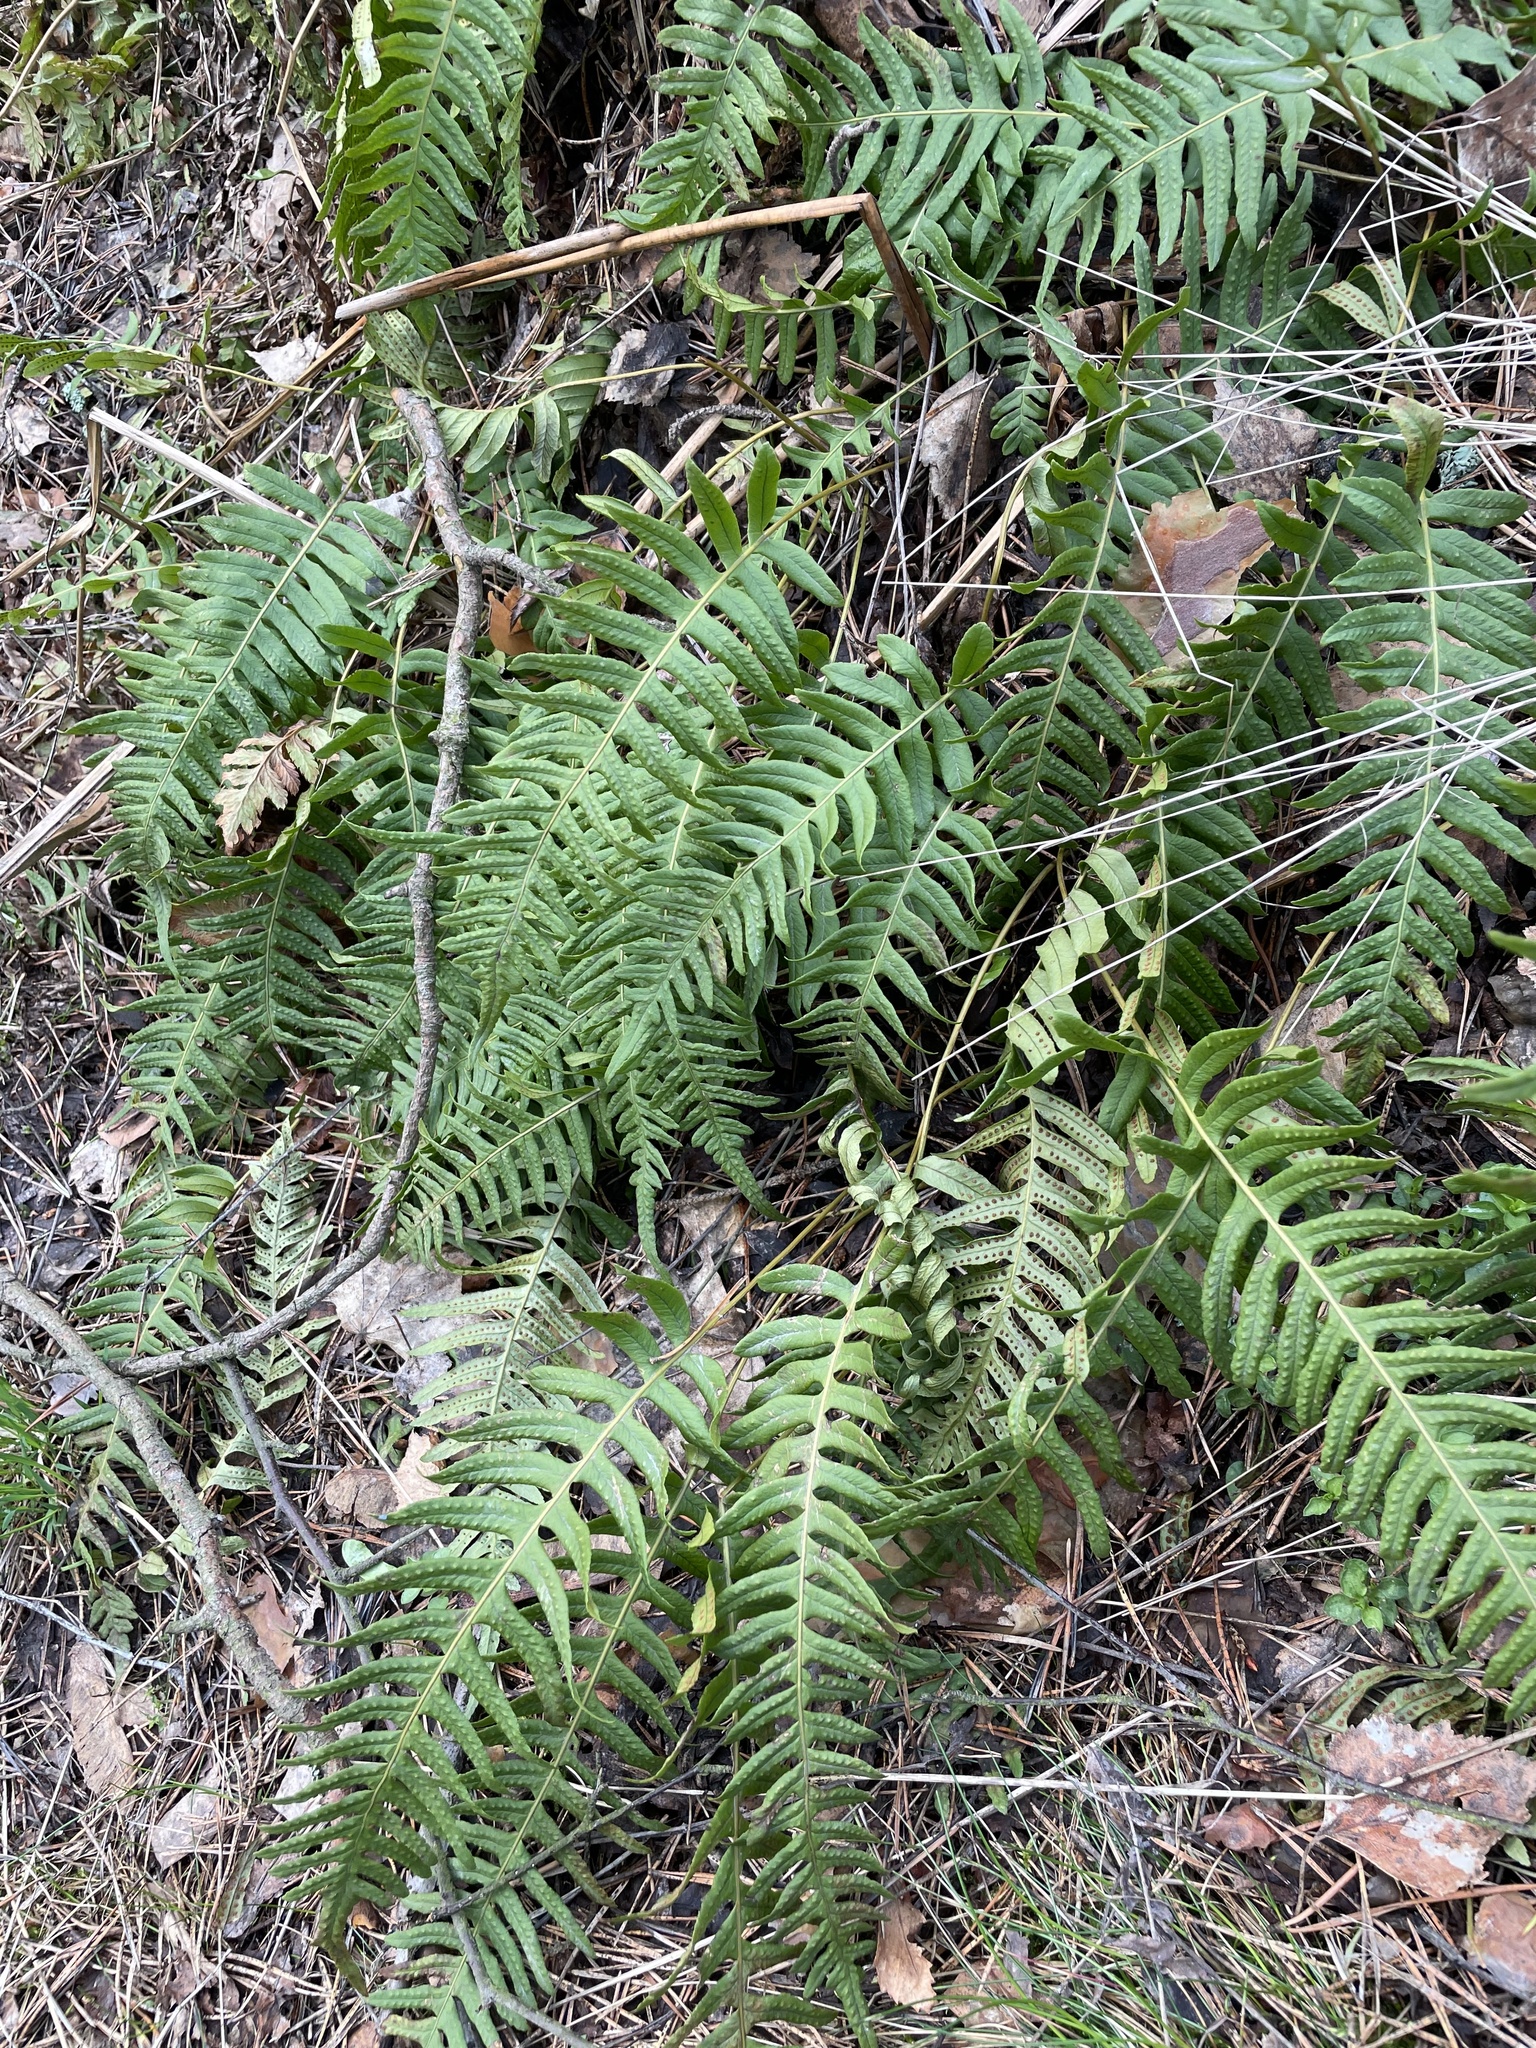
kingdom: Plantae
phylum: Tracheophyta
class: Polypodiopsida
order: Polypodiales
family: Polypodiaceae
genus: Polypodium
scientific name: Polypodium vulgare
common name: Common polypody
